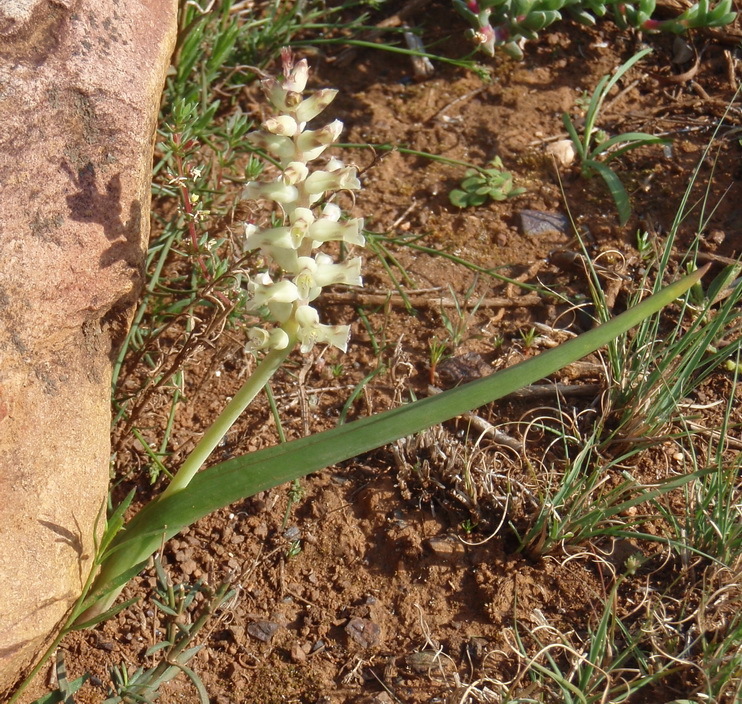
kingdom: Plantae
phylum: Tracheophyta
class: Liliopsida
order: Asparagales
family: Asparagaceae
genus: Lachenalia
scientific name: Lachenalia canaliculata
